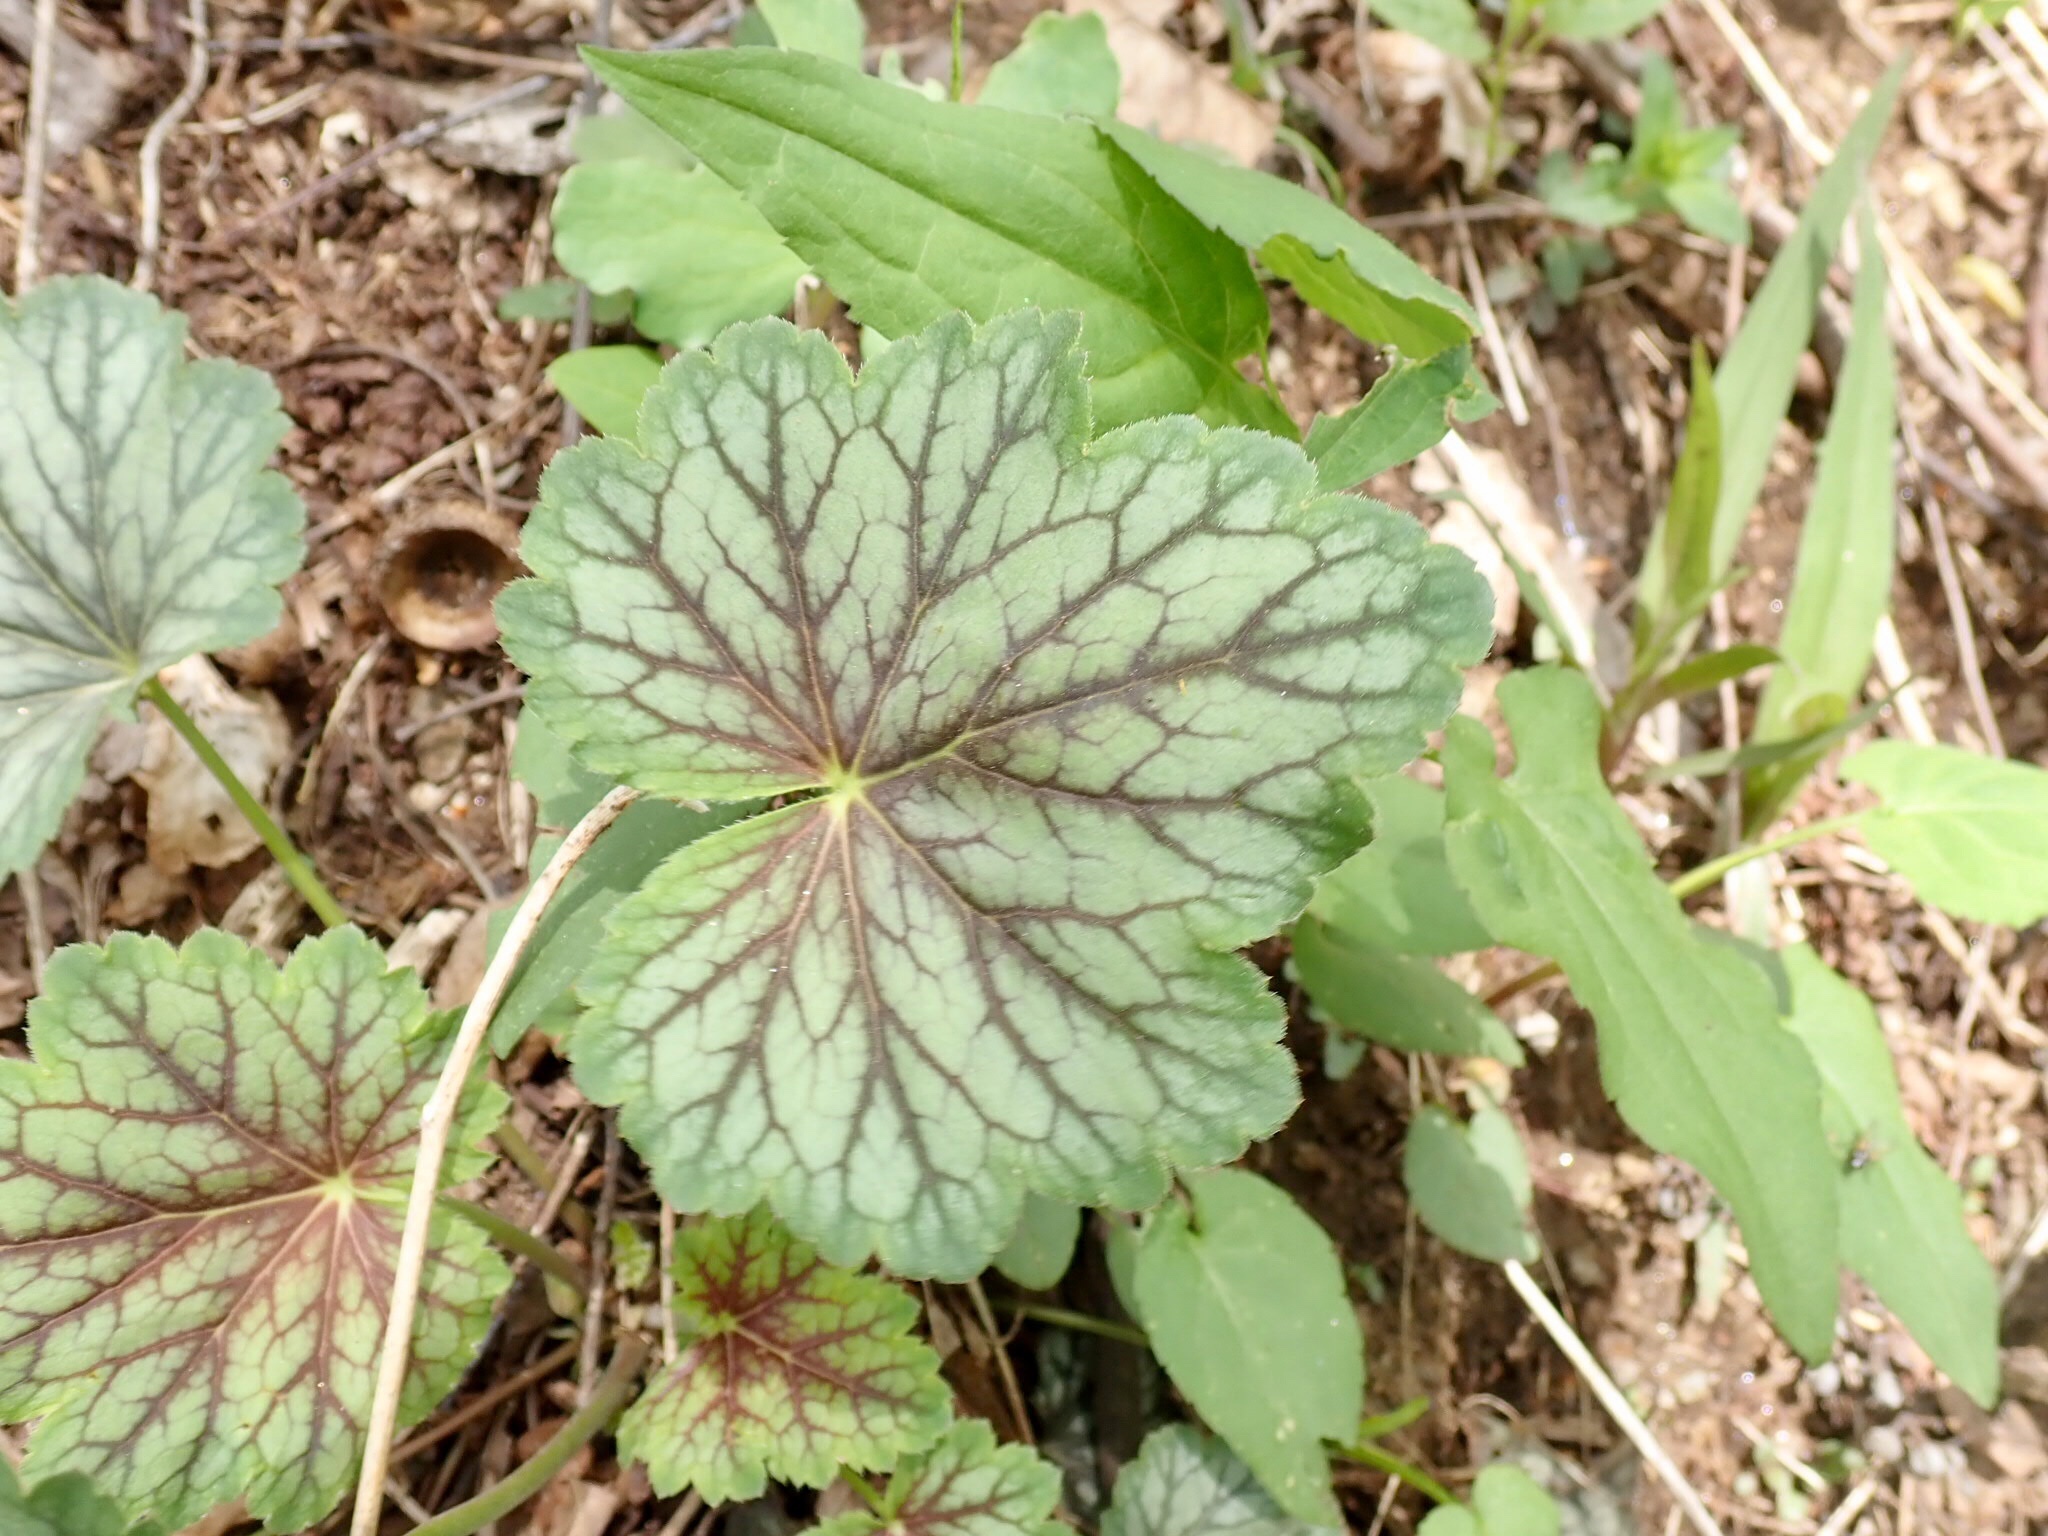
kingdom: Plantae
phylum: Tracheophyta
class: Magnoliopsida
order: Saxifragales
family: Saxifragaceae
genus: Heuchera
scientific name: Heuchera americana
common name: Alumroot
